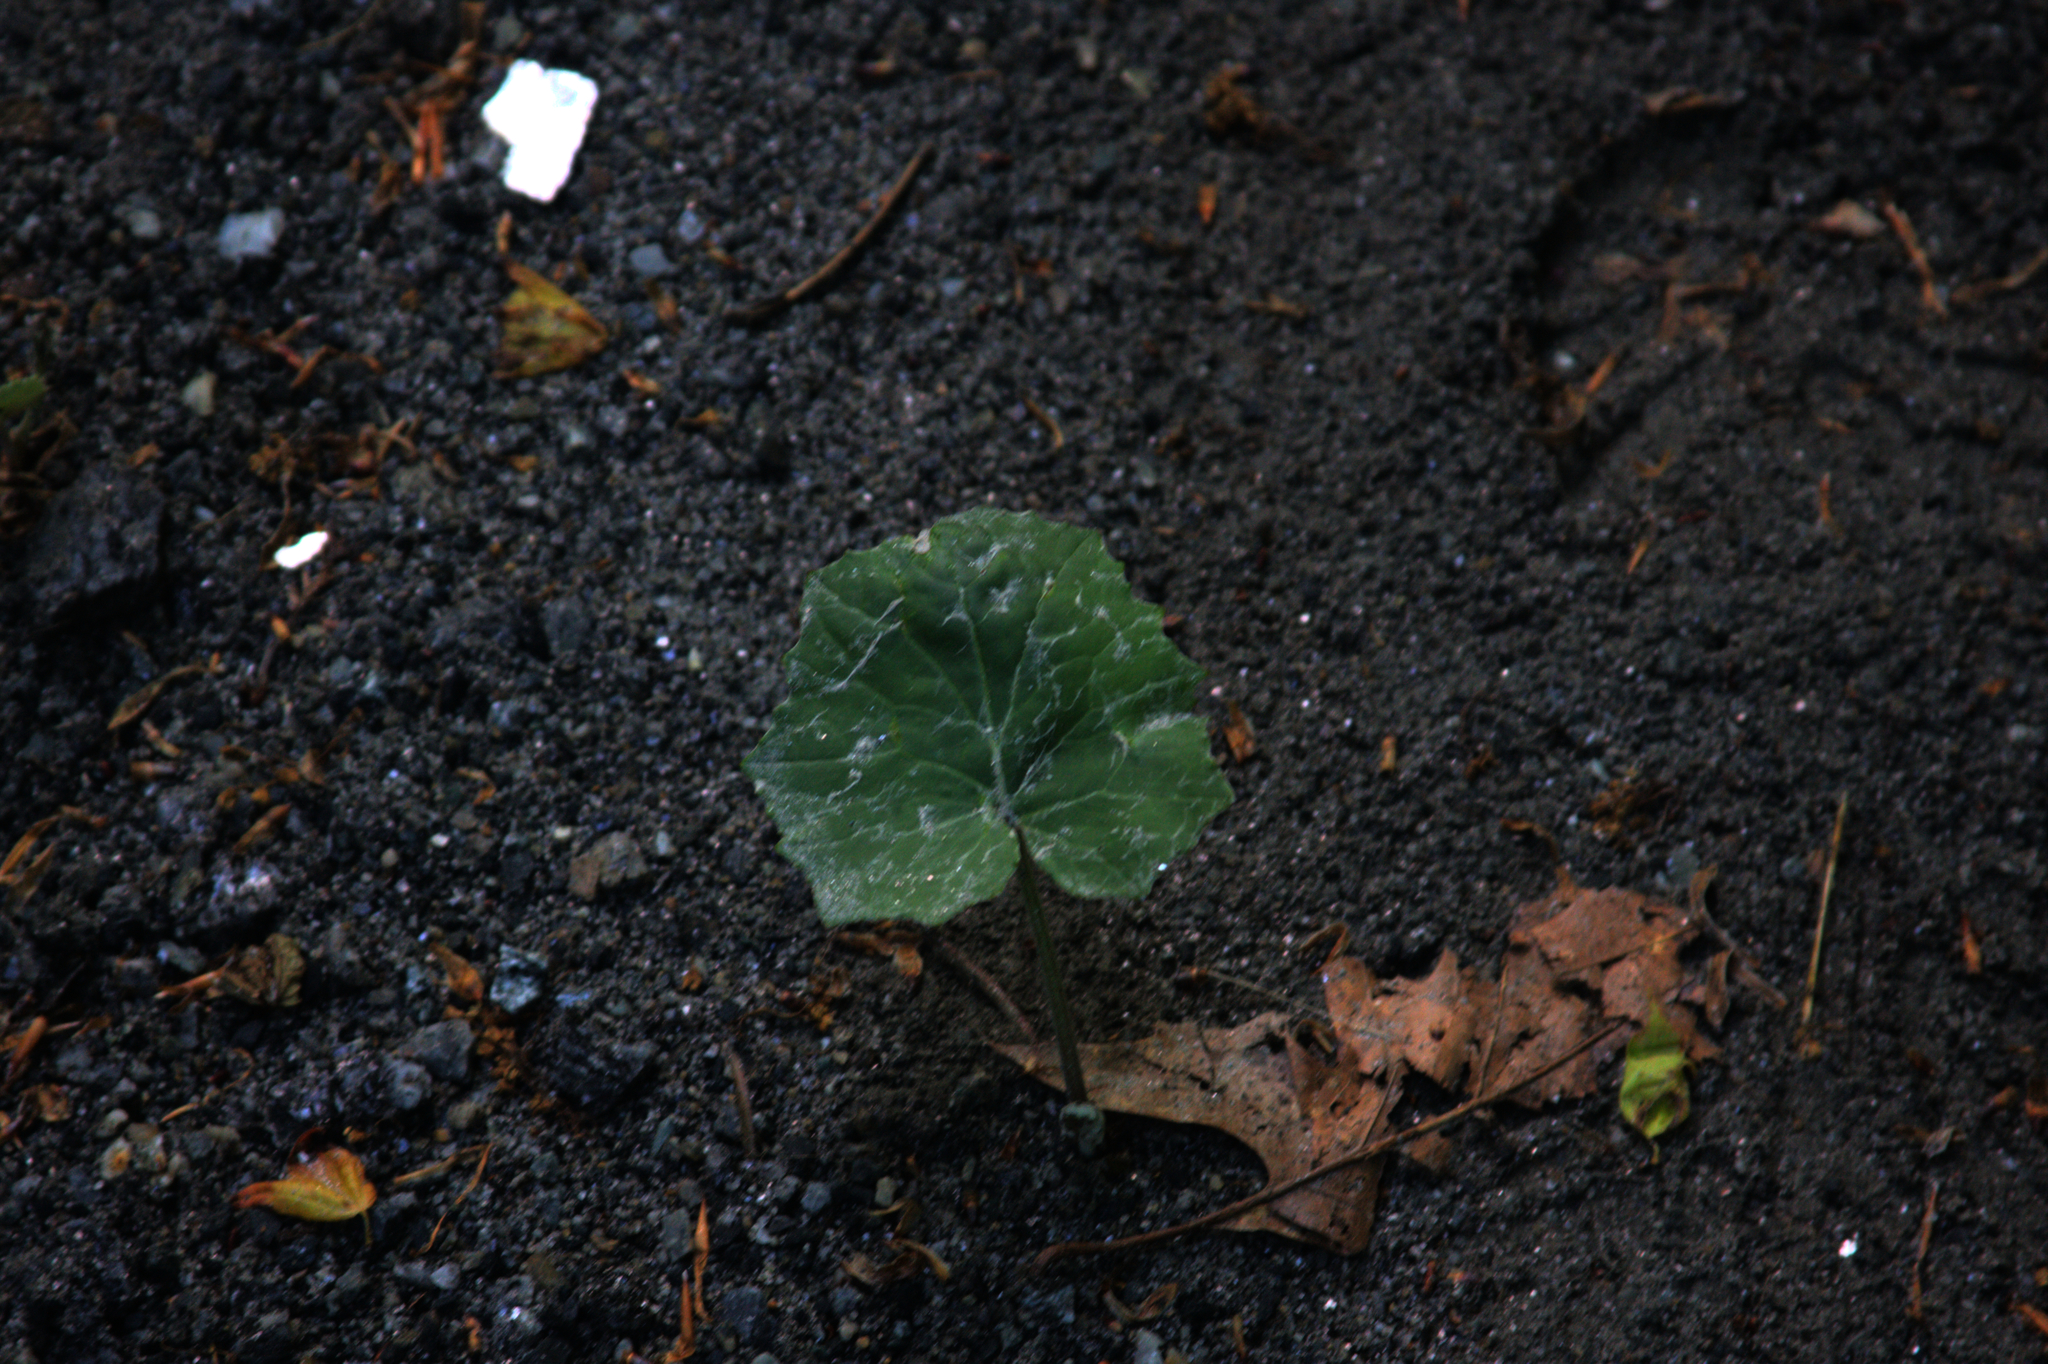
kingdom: Plantae
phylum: Tracheophyta
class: Magnoliopsida
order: Asterales
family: Asteraceae
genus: Tussilago
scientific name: Tussilago farfara
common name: Coltsfoot
